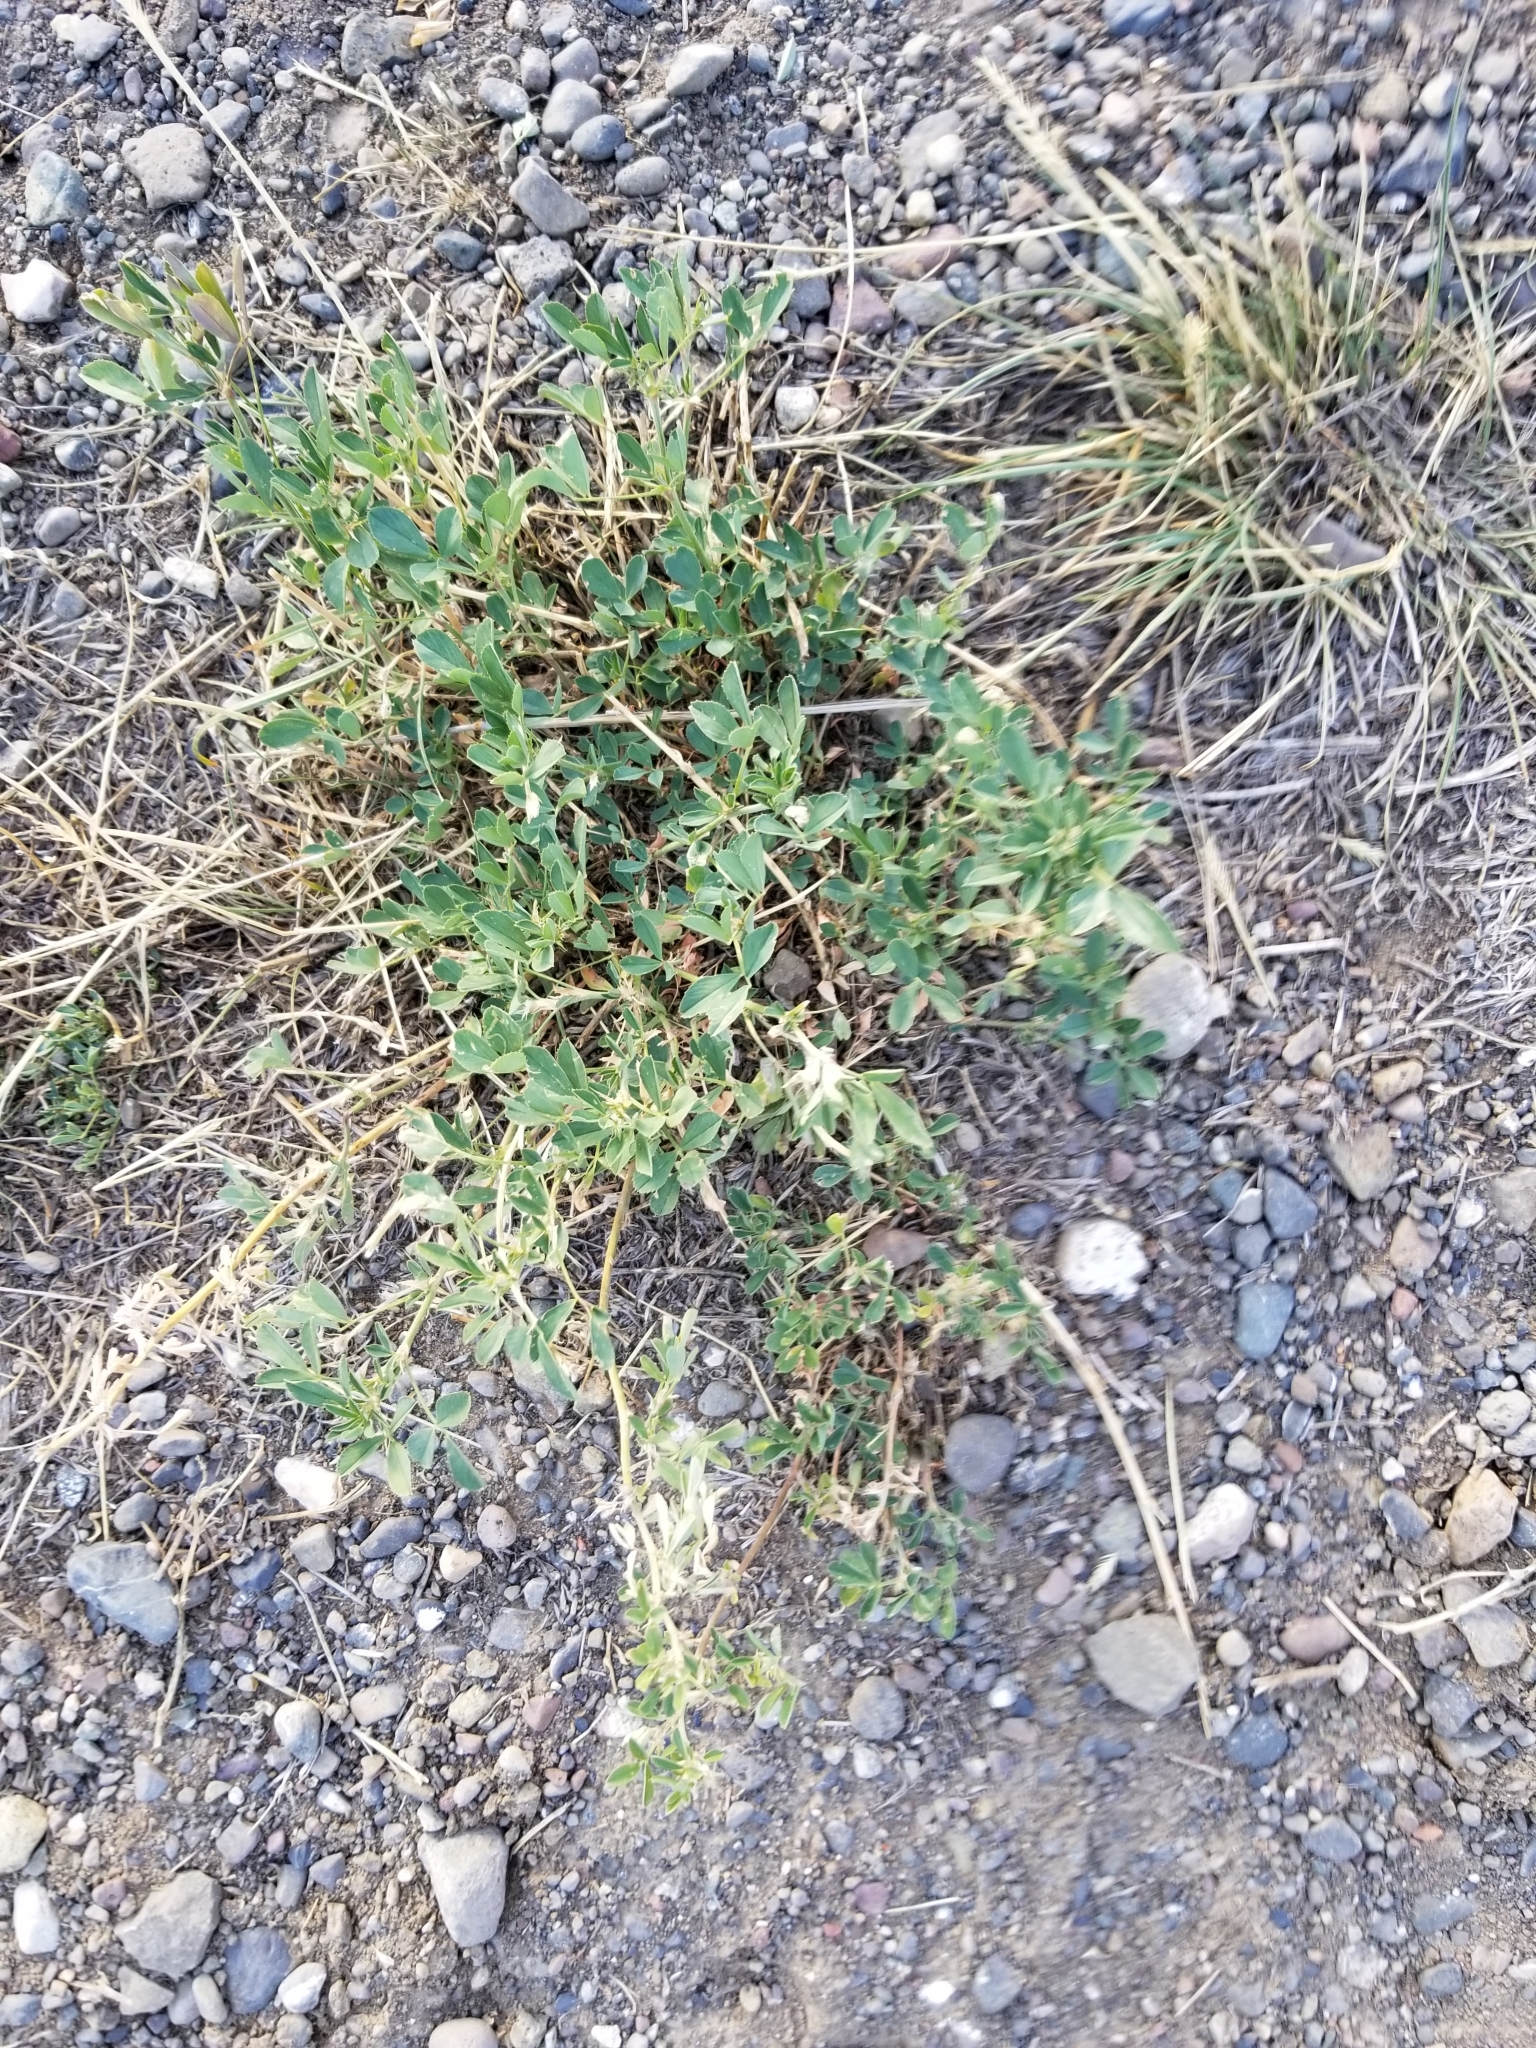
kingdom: Plantae
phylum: Tracheophyta
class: Magnoliopsida
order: Fabales
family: Fabaceae
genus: Medicago
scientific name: Medicago sativa
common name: Alfalfa
